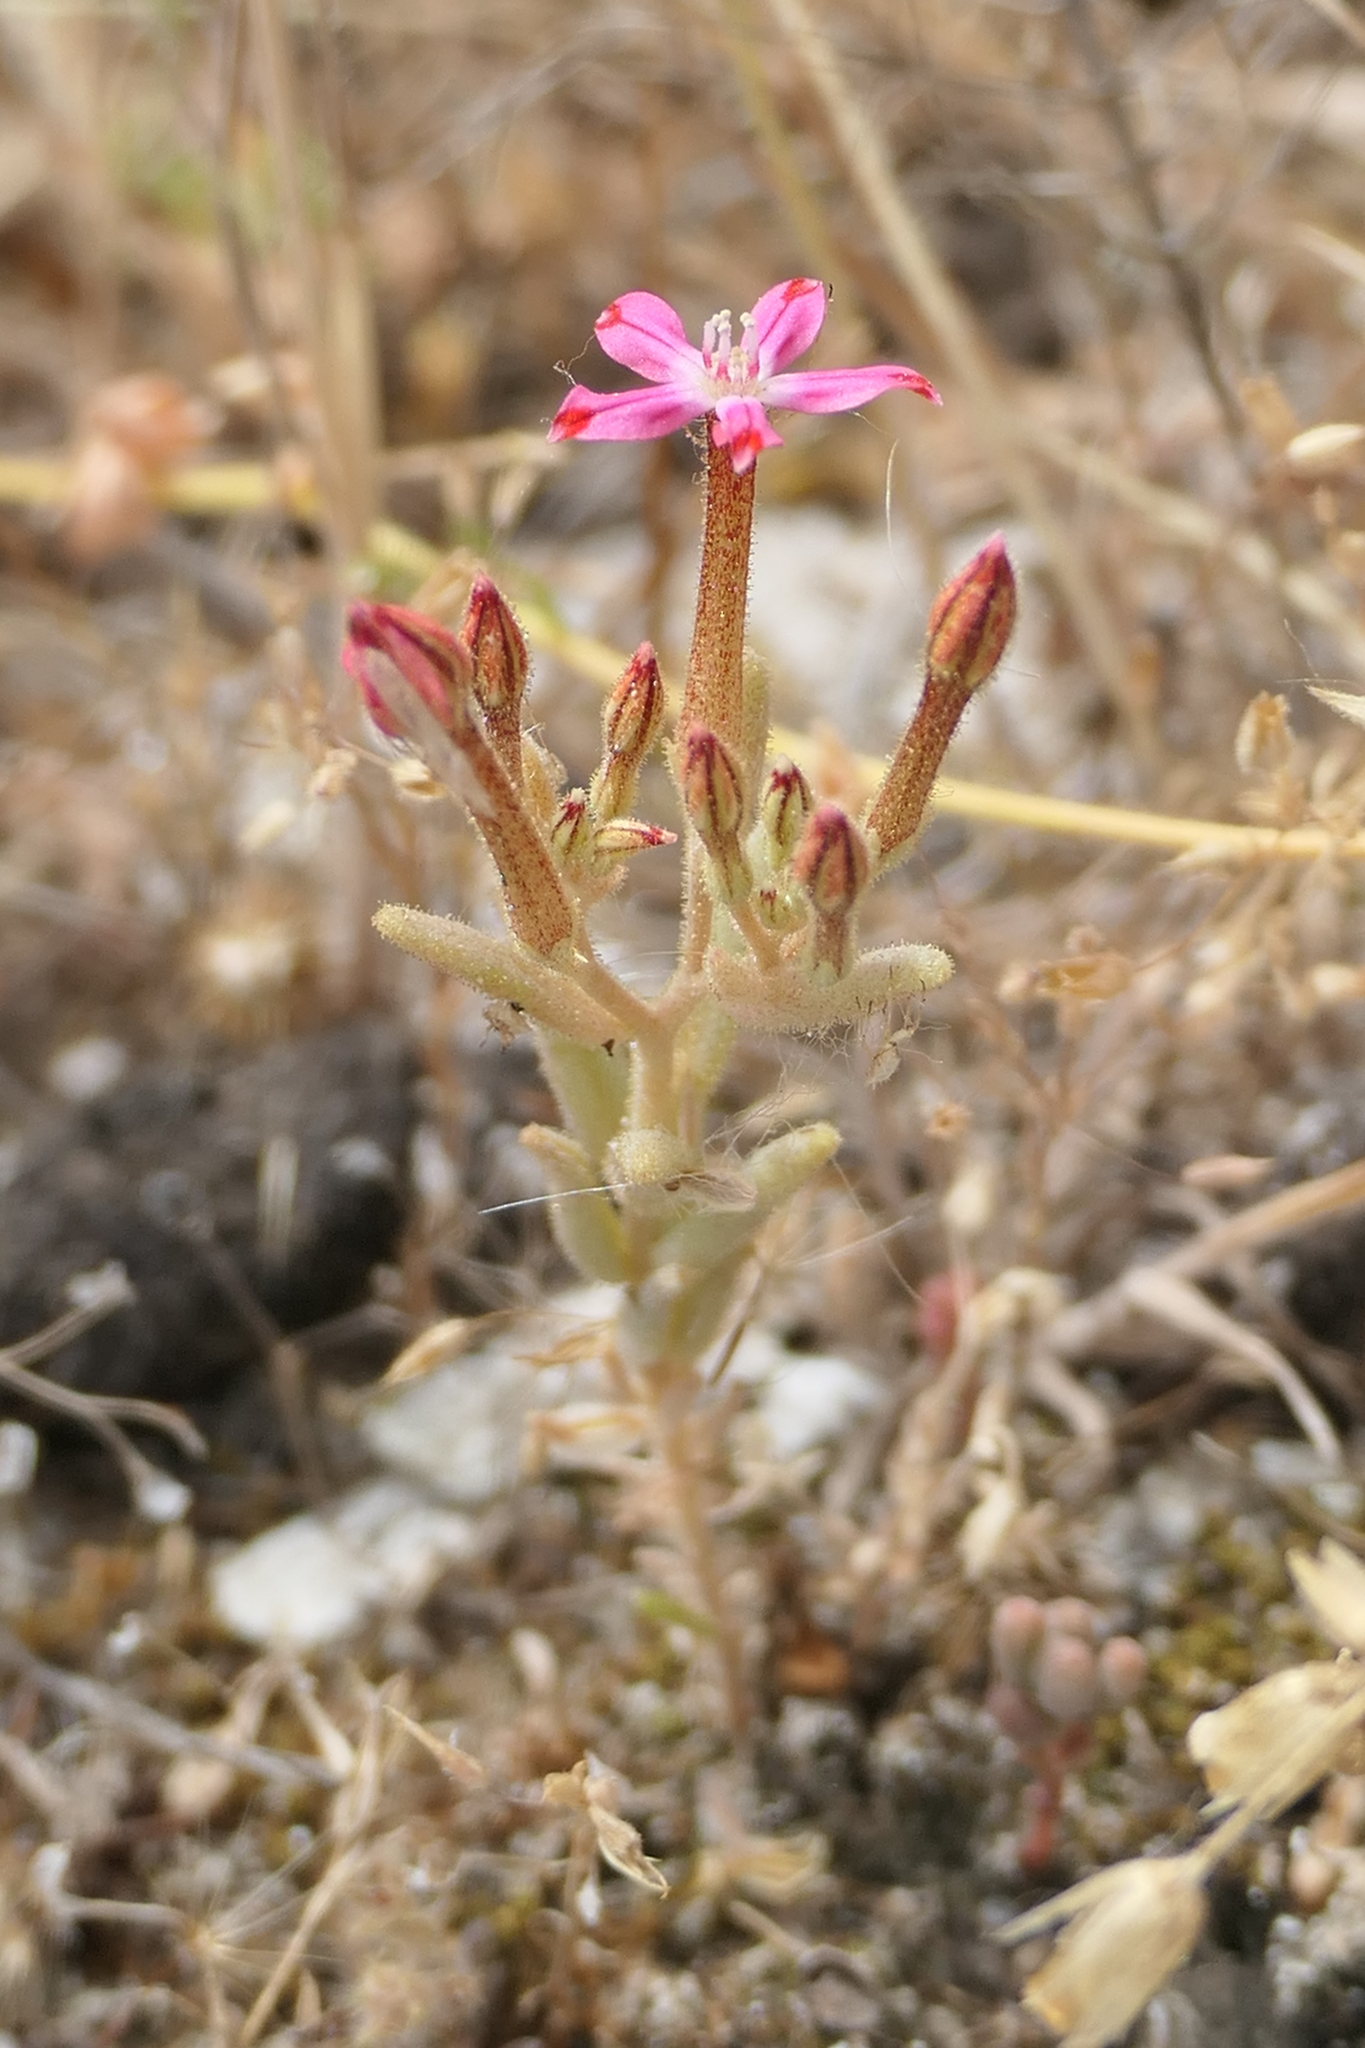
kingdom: Plantae
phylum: Tracheophyta
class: Magnoliopsida
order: Saxifragales
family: Crassulaceae
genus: Pistorinia
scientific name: Pistorinia hispanica
